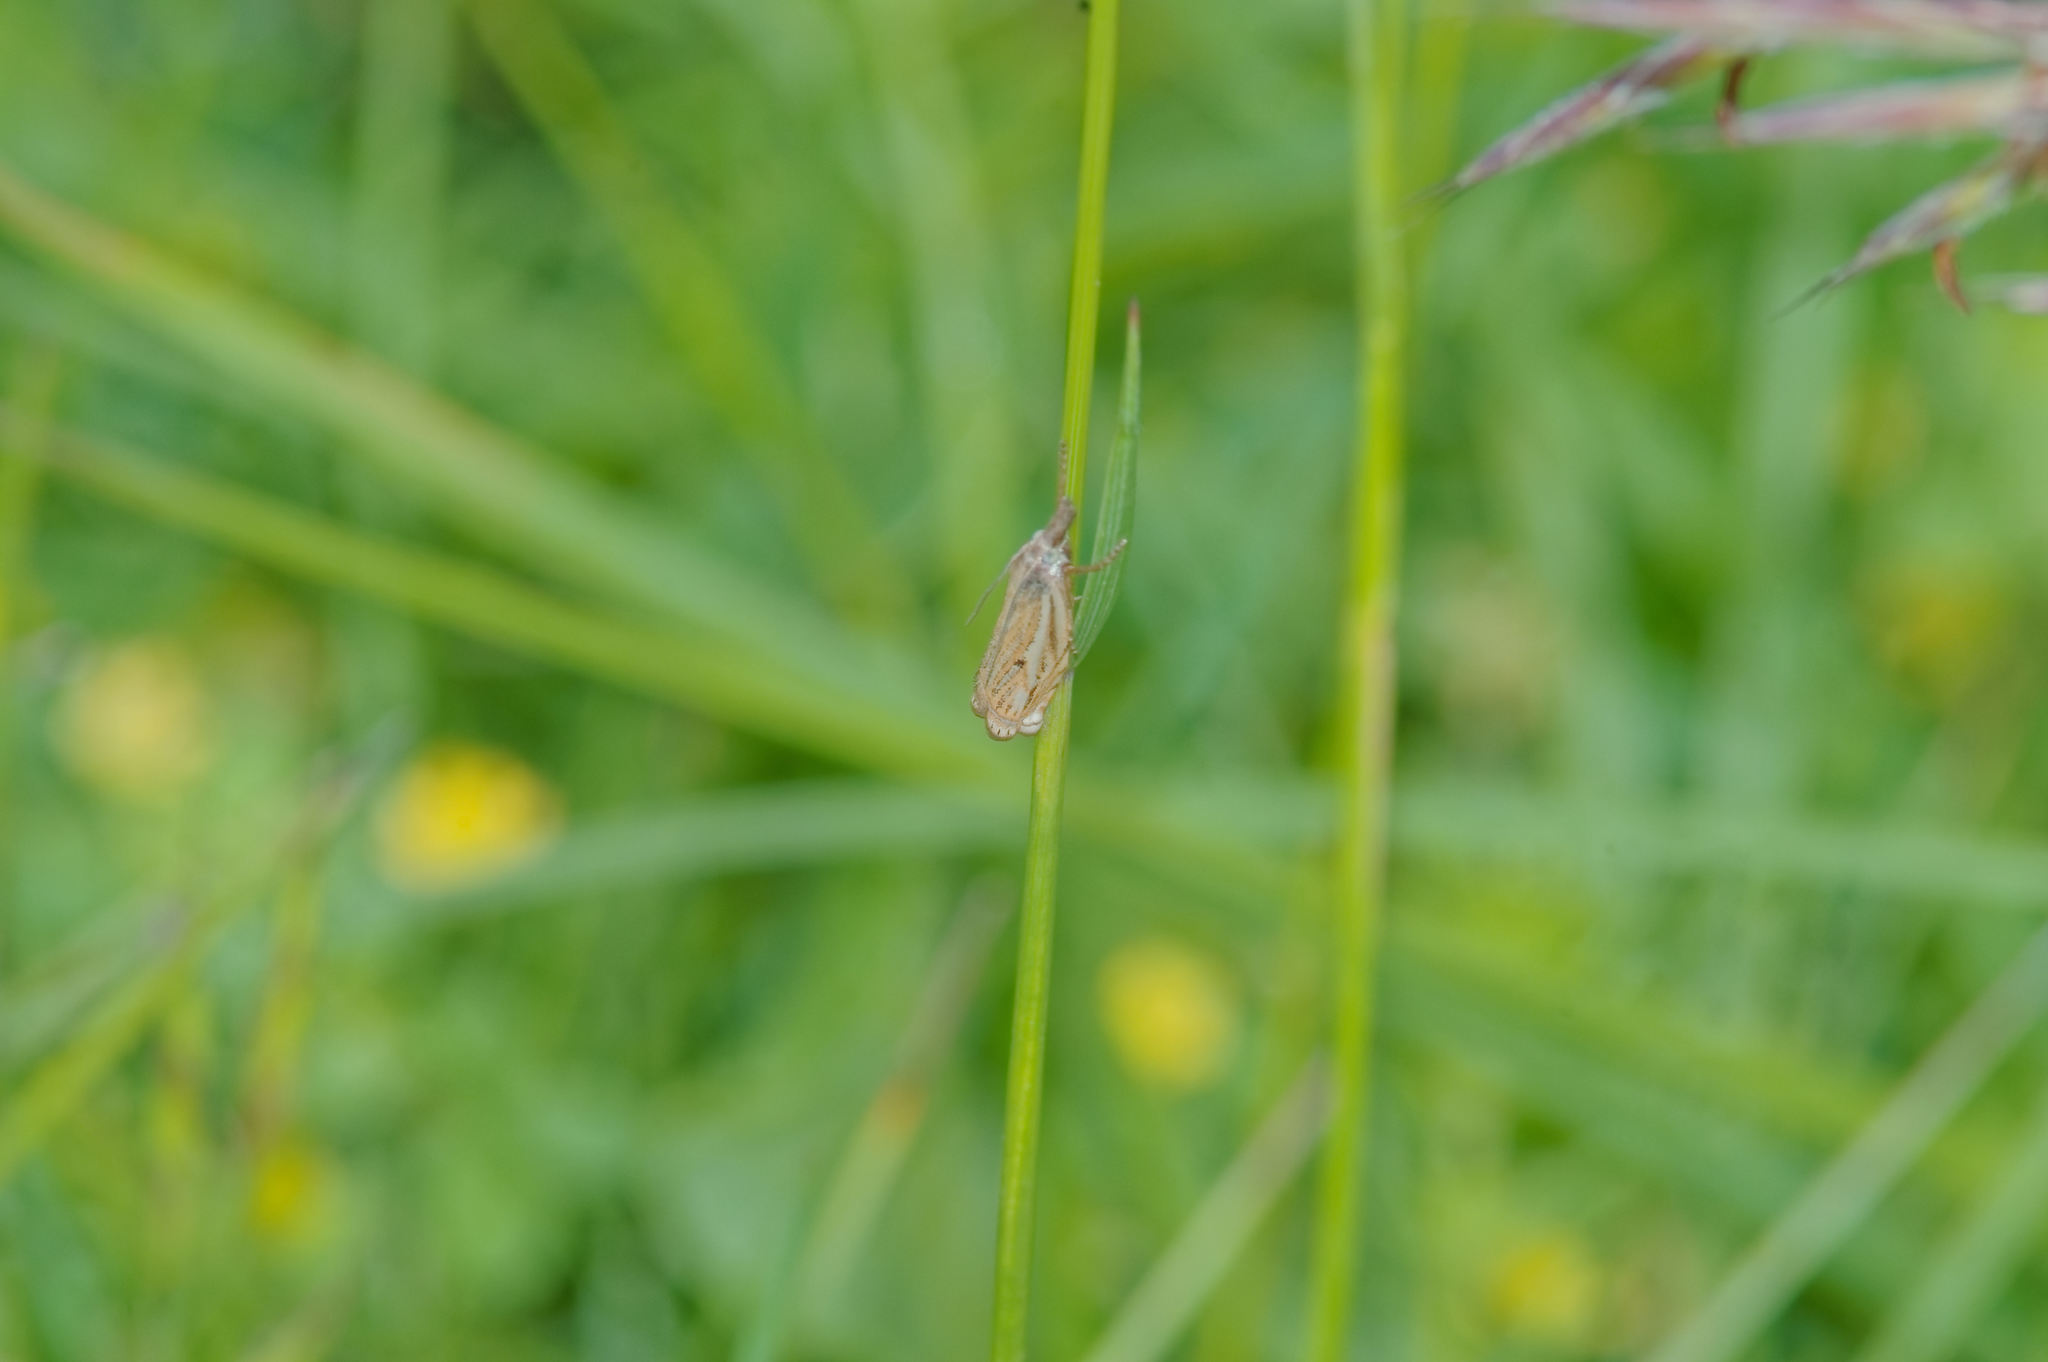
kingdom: Animalia
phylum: Arthropoda
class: Insecta
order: Lepidoptera
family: Crambidae
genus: Crambus
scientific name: Crambus nemorella
